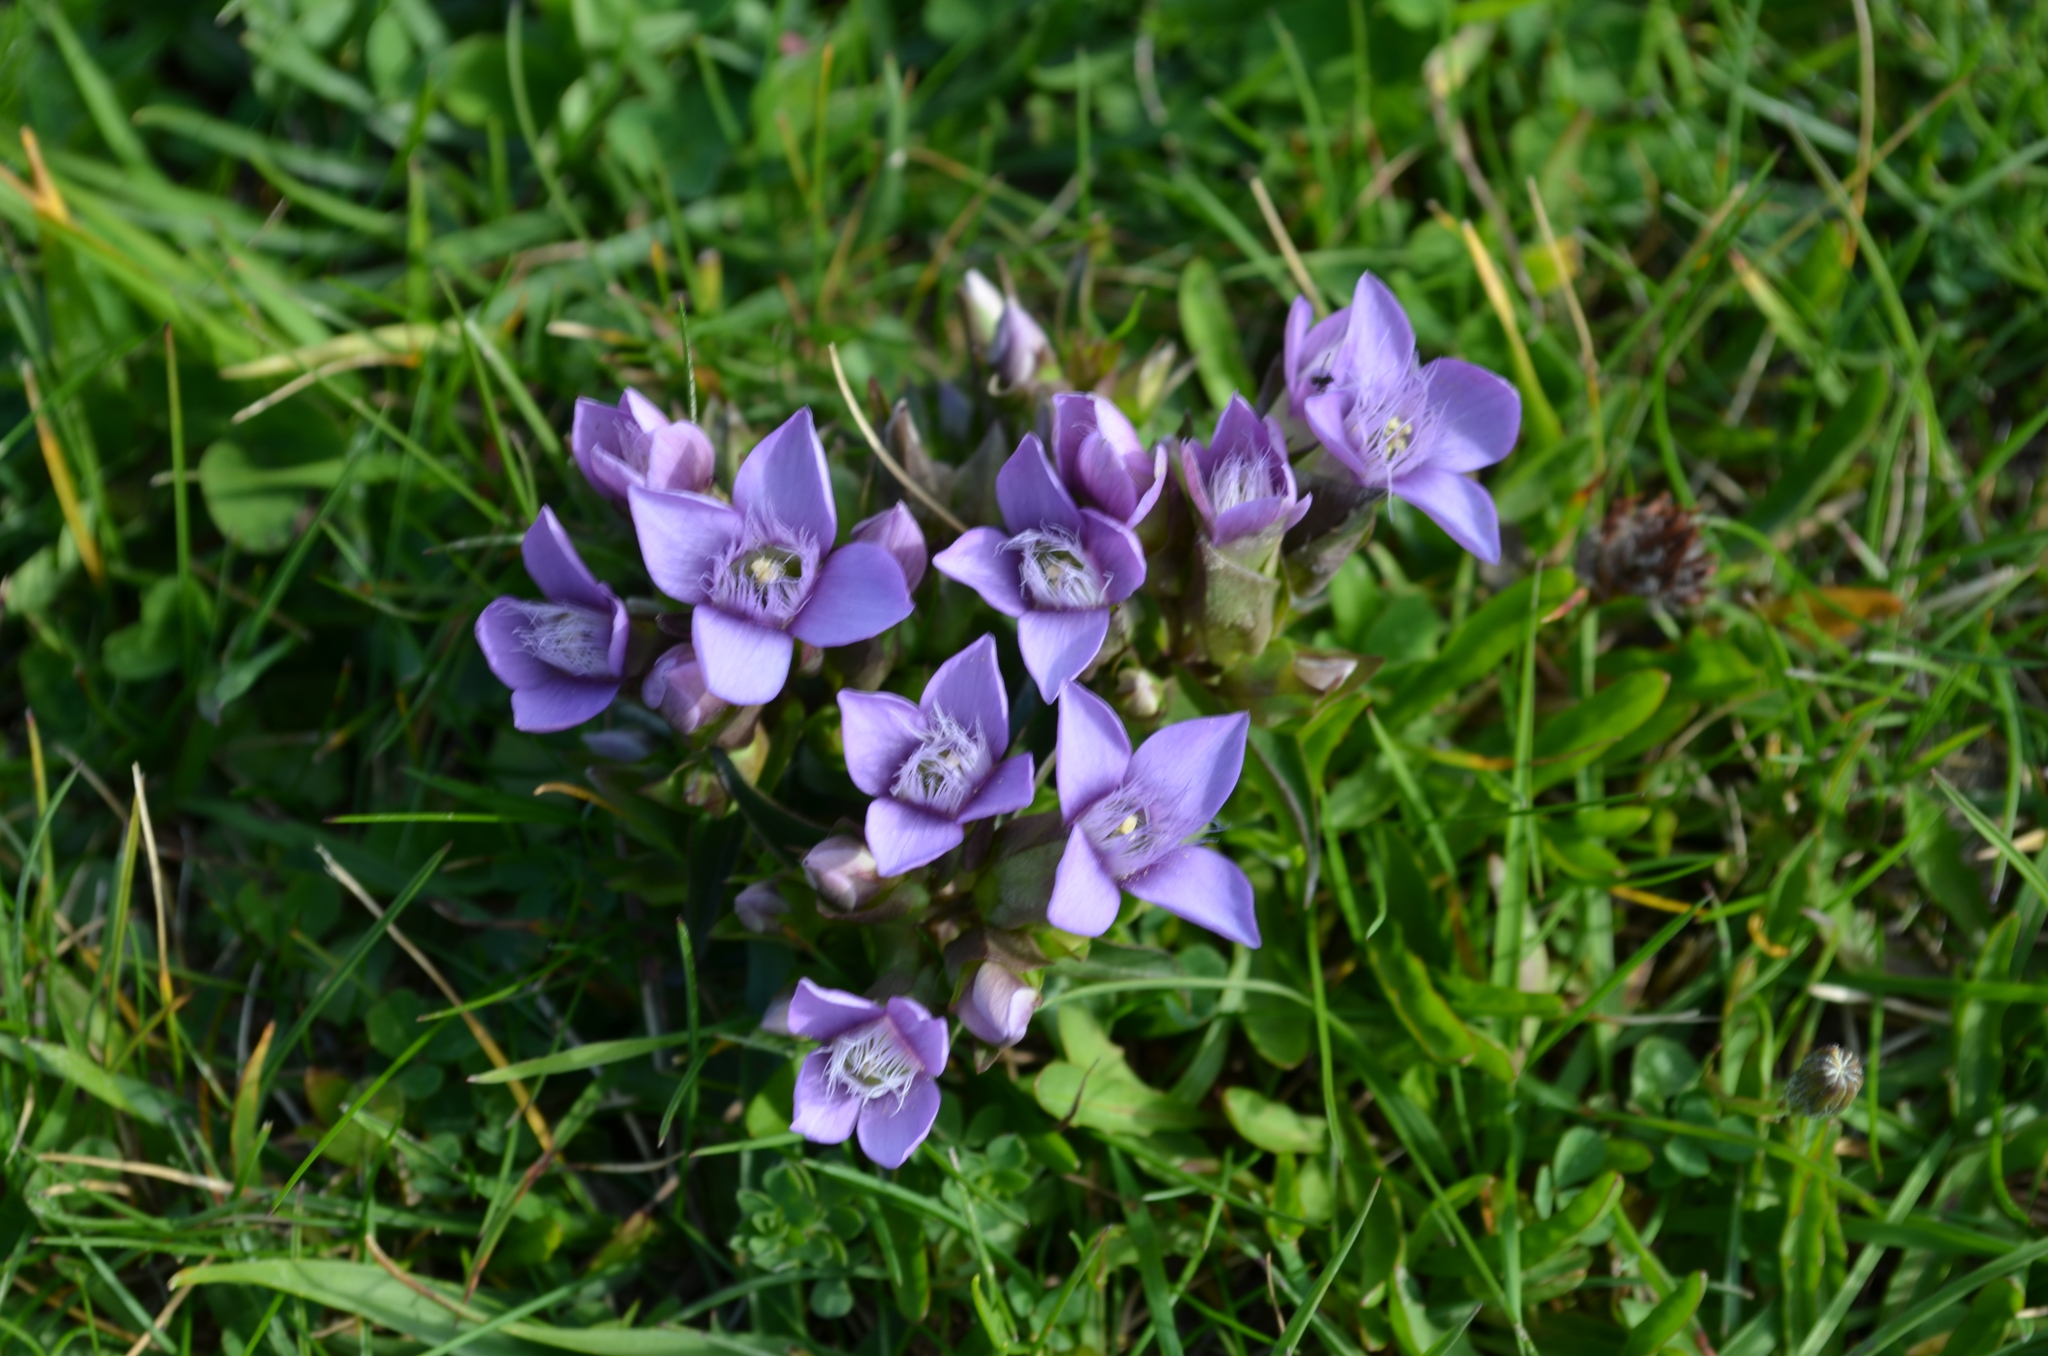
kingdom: Plantae
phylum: Tracheophyta
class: Magnoliopsida
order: Gentianales
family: Gentianaceae
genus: Gentianella
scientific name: Gentianella campestris
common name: Field gentian
